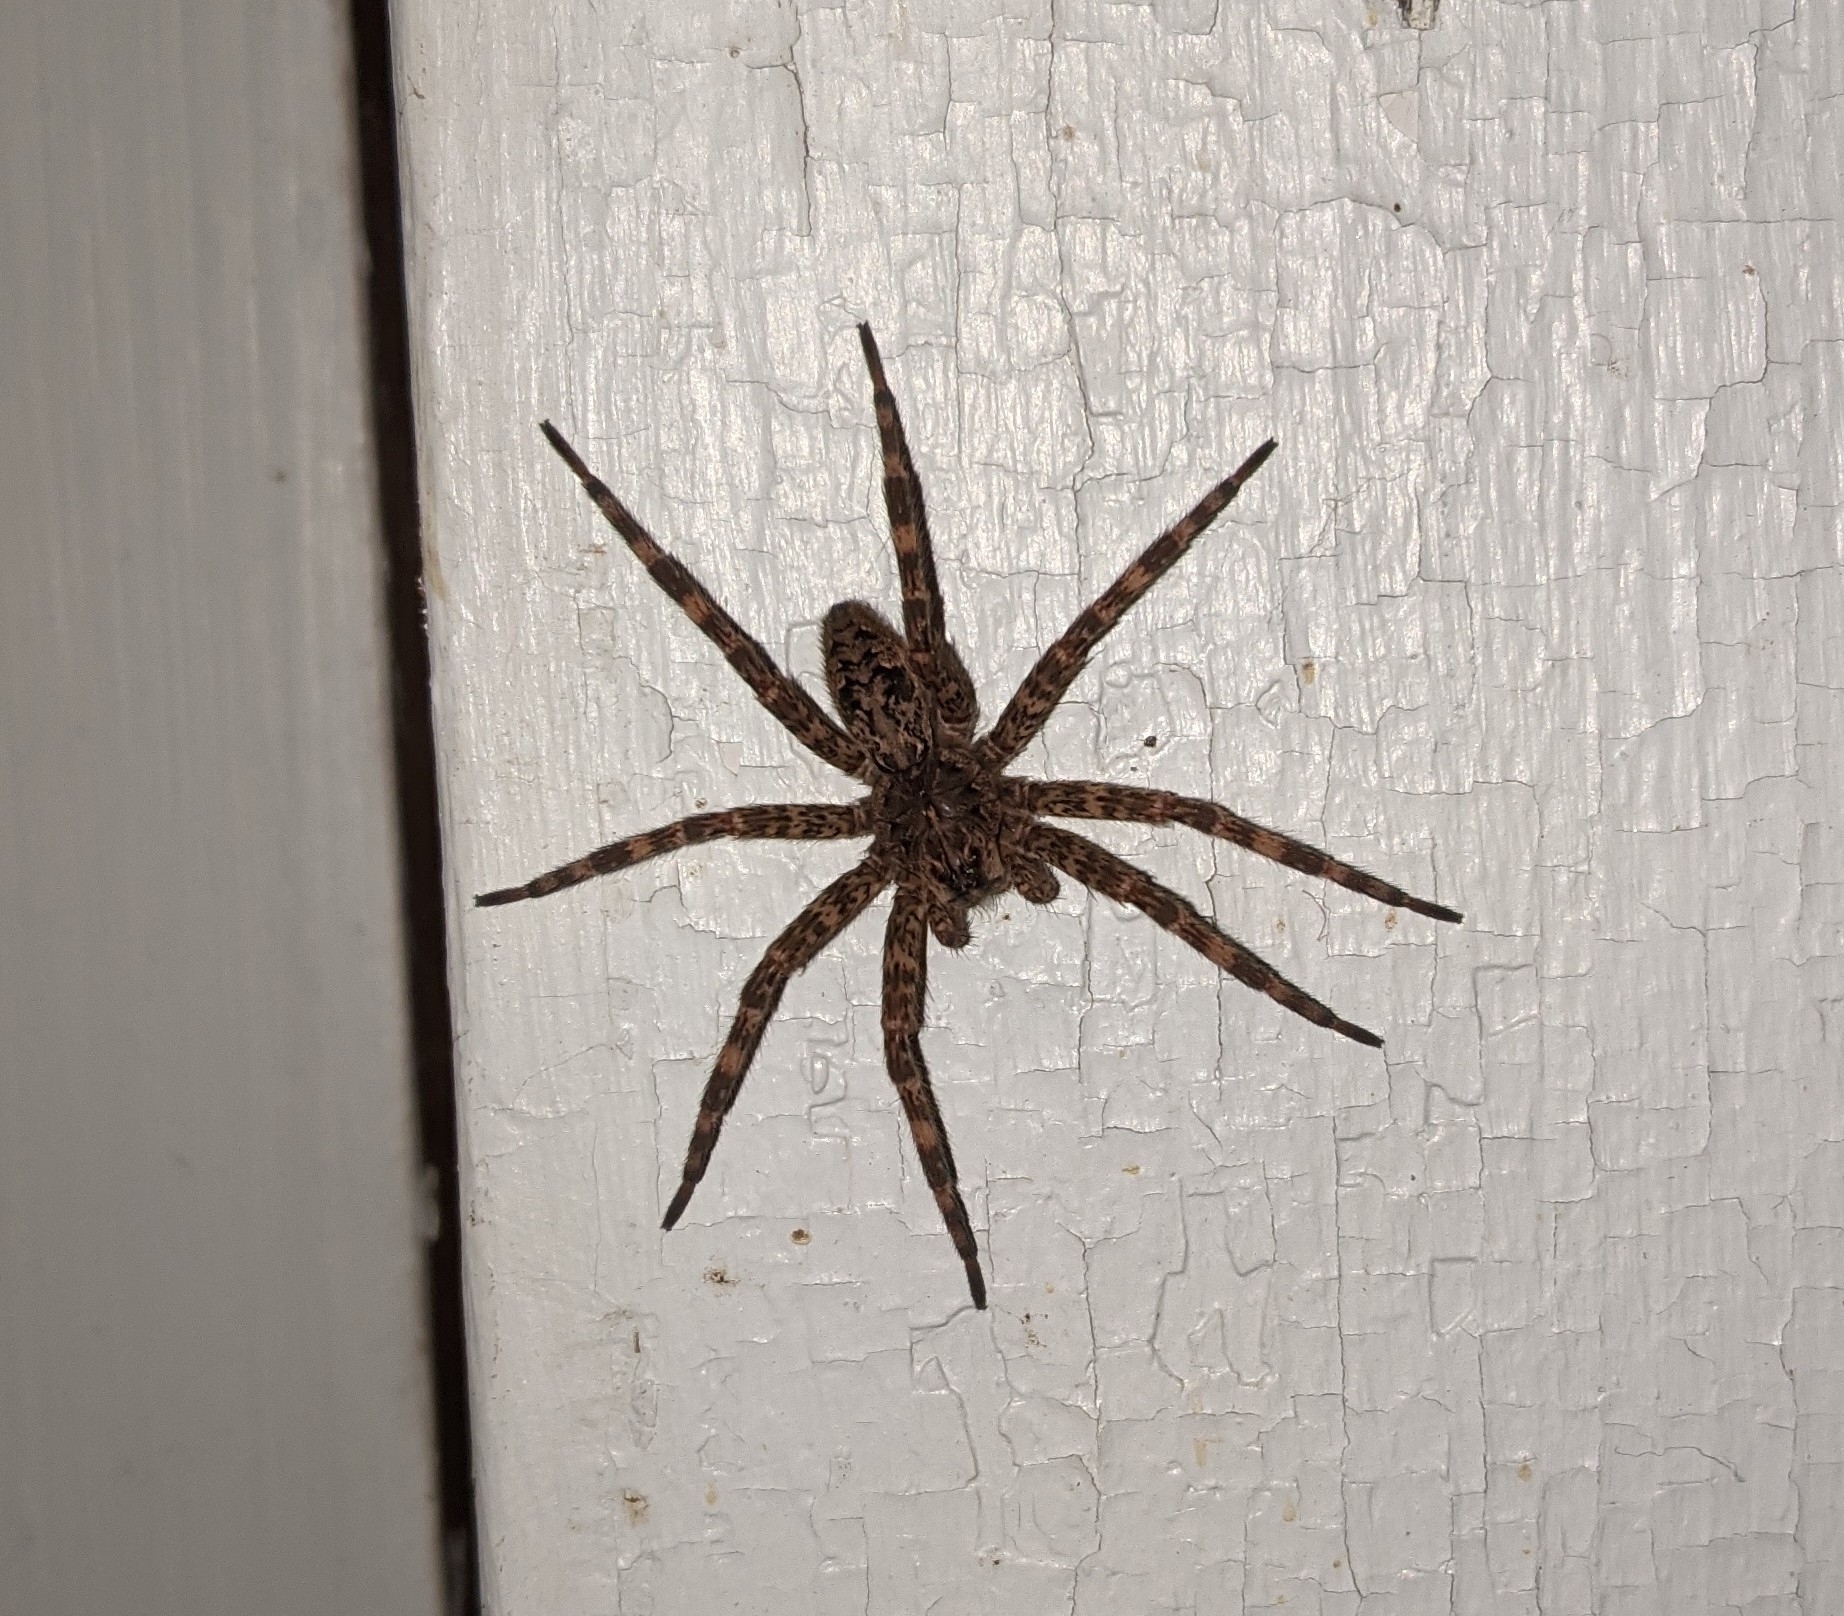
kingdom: Animalia
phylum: Arthropoda
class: Arachnida
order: Araneae
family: Pisauridae
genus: Dolomedes
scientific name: Dolomedes tenebrosus
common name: Dark fishing spider
